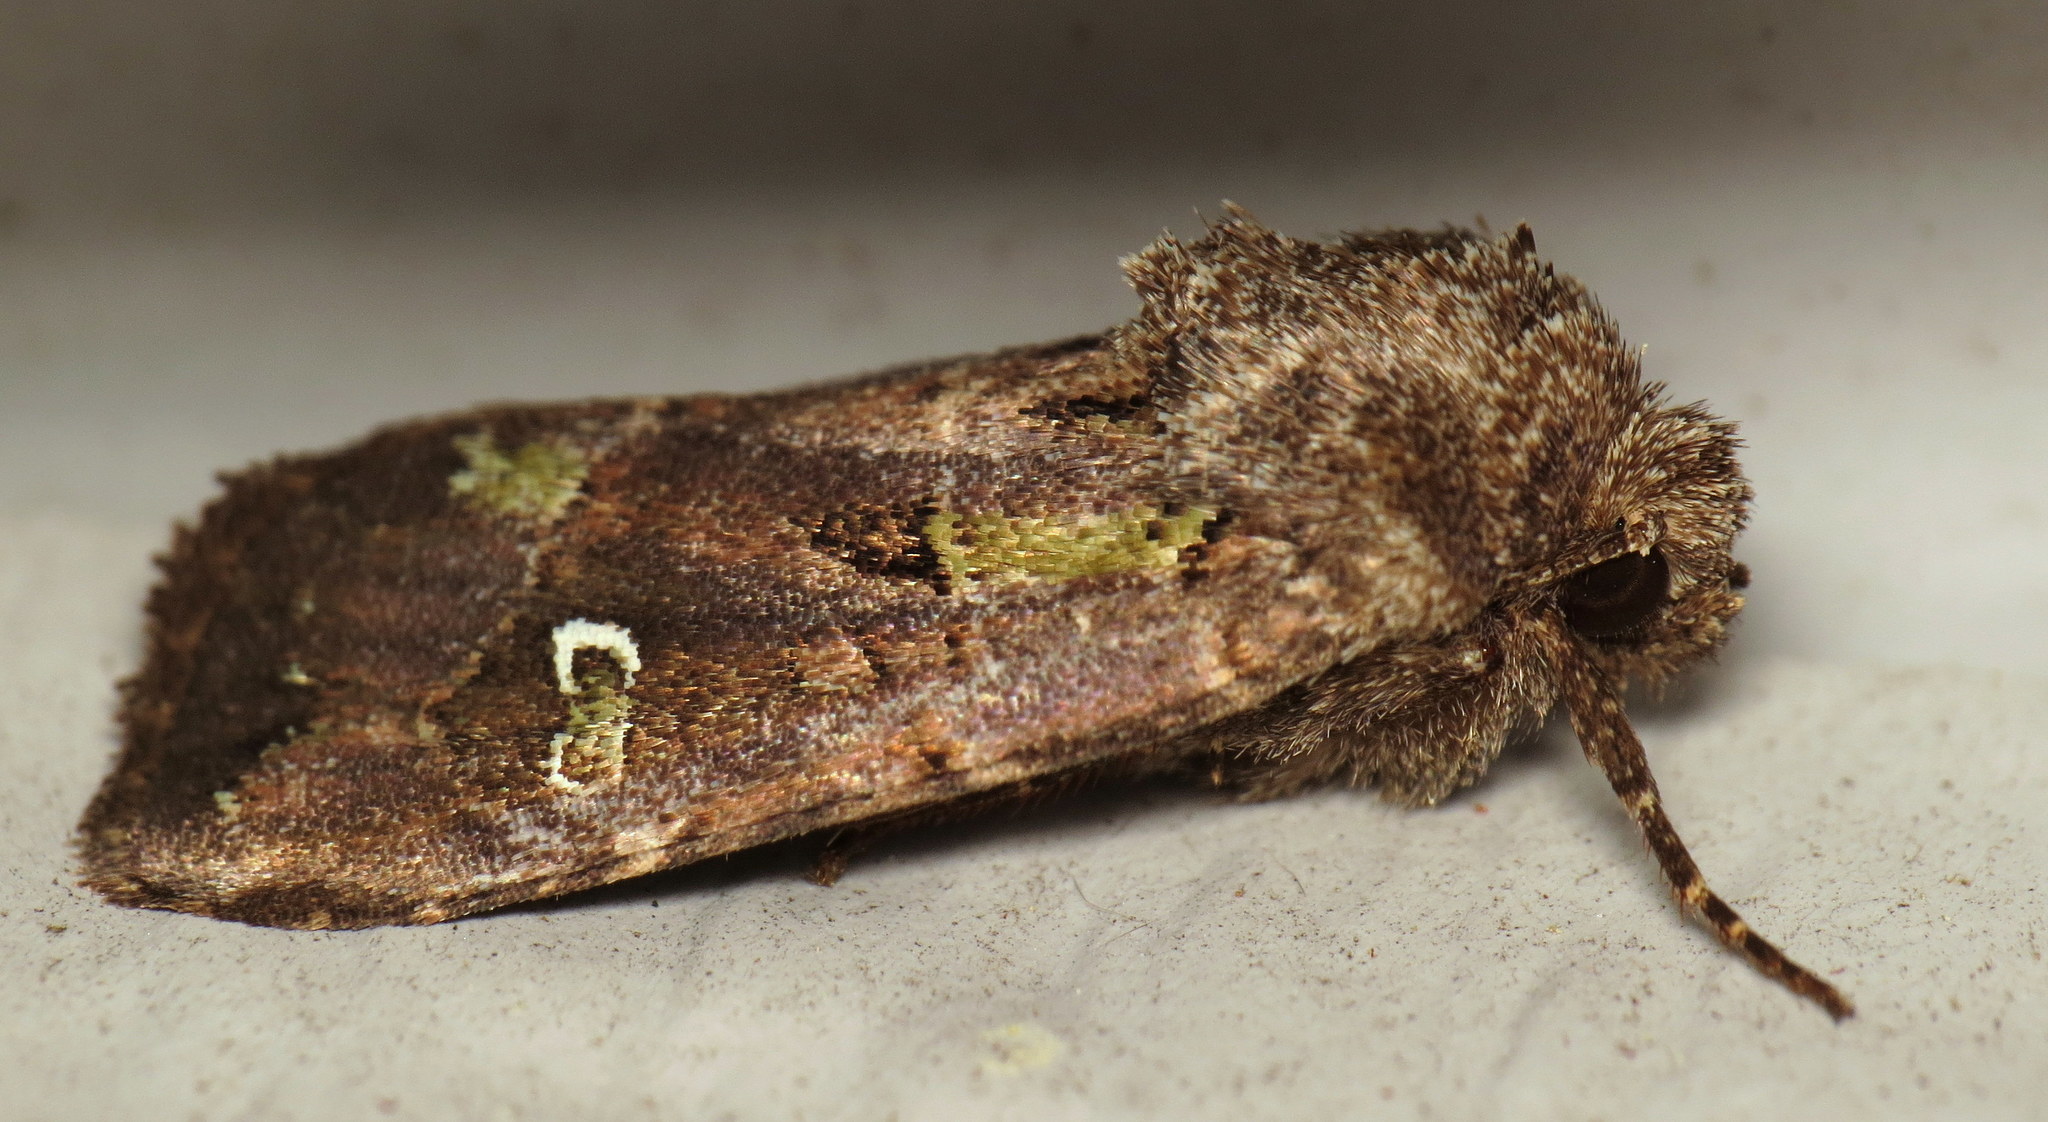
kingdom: Animalia
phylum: Arthropoda
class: Insecta
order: Lepidoptera
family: Noctuidae
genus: Lacinipolia
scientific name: Lacinipolia renigera
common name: Kidney-spotted minor
